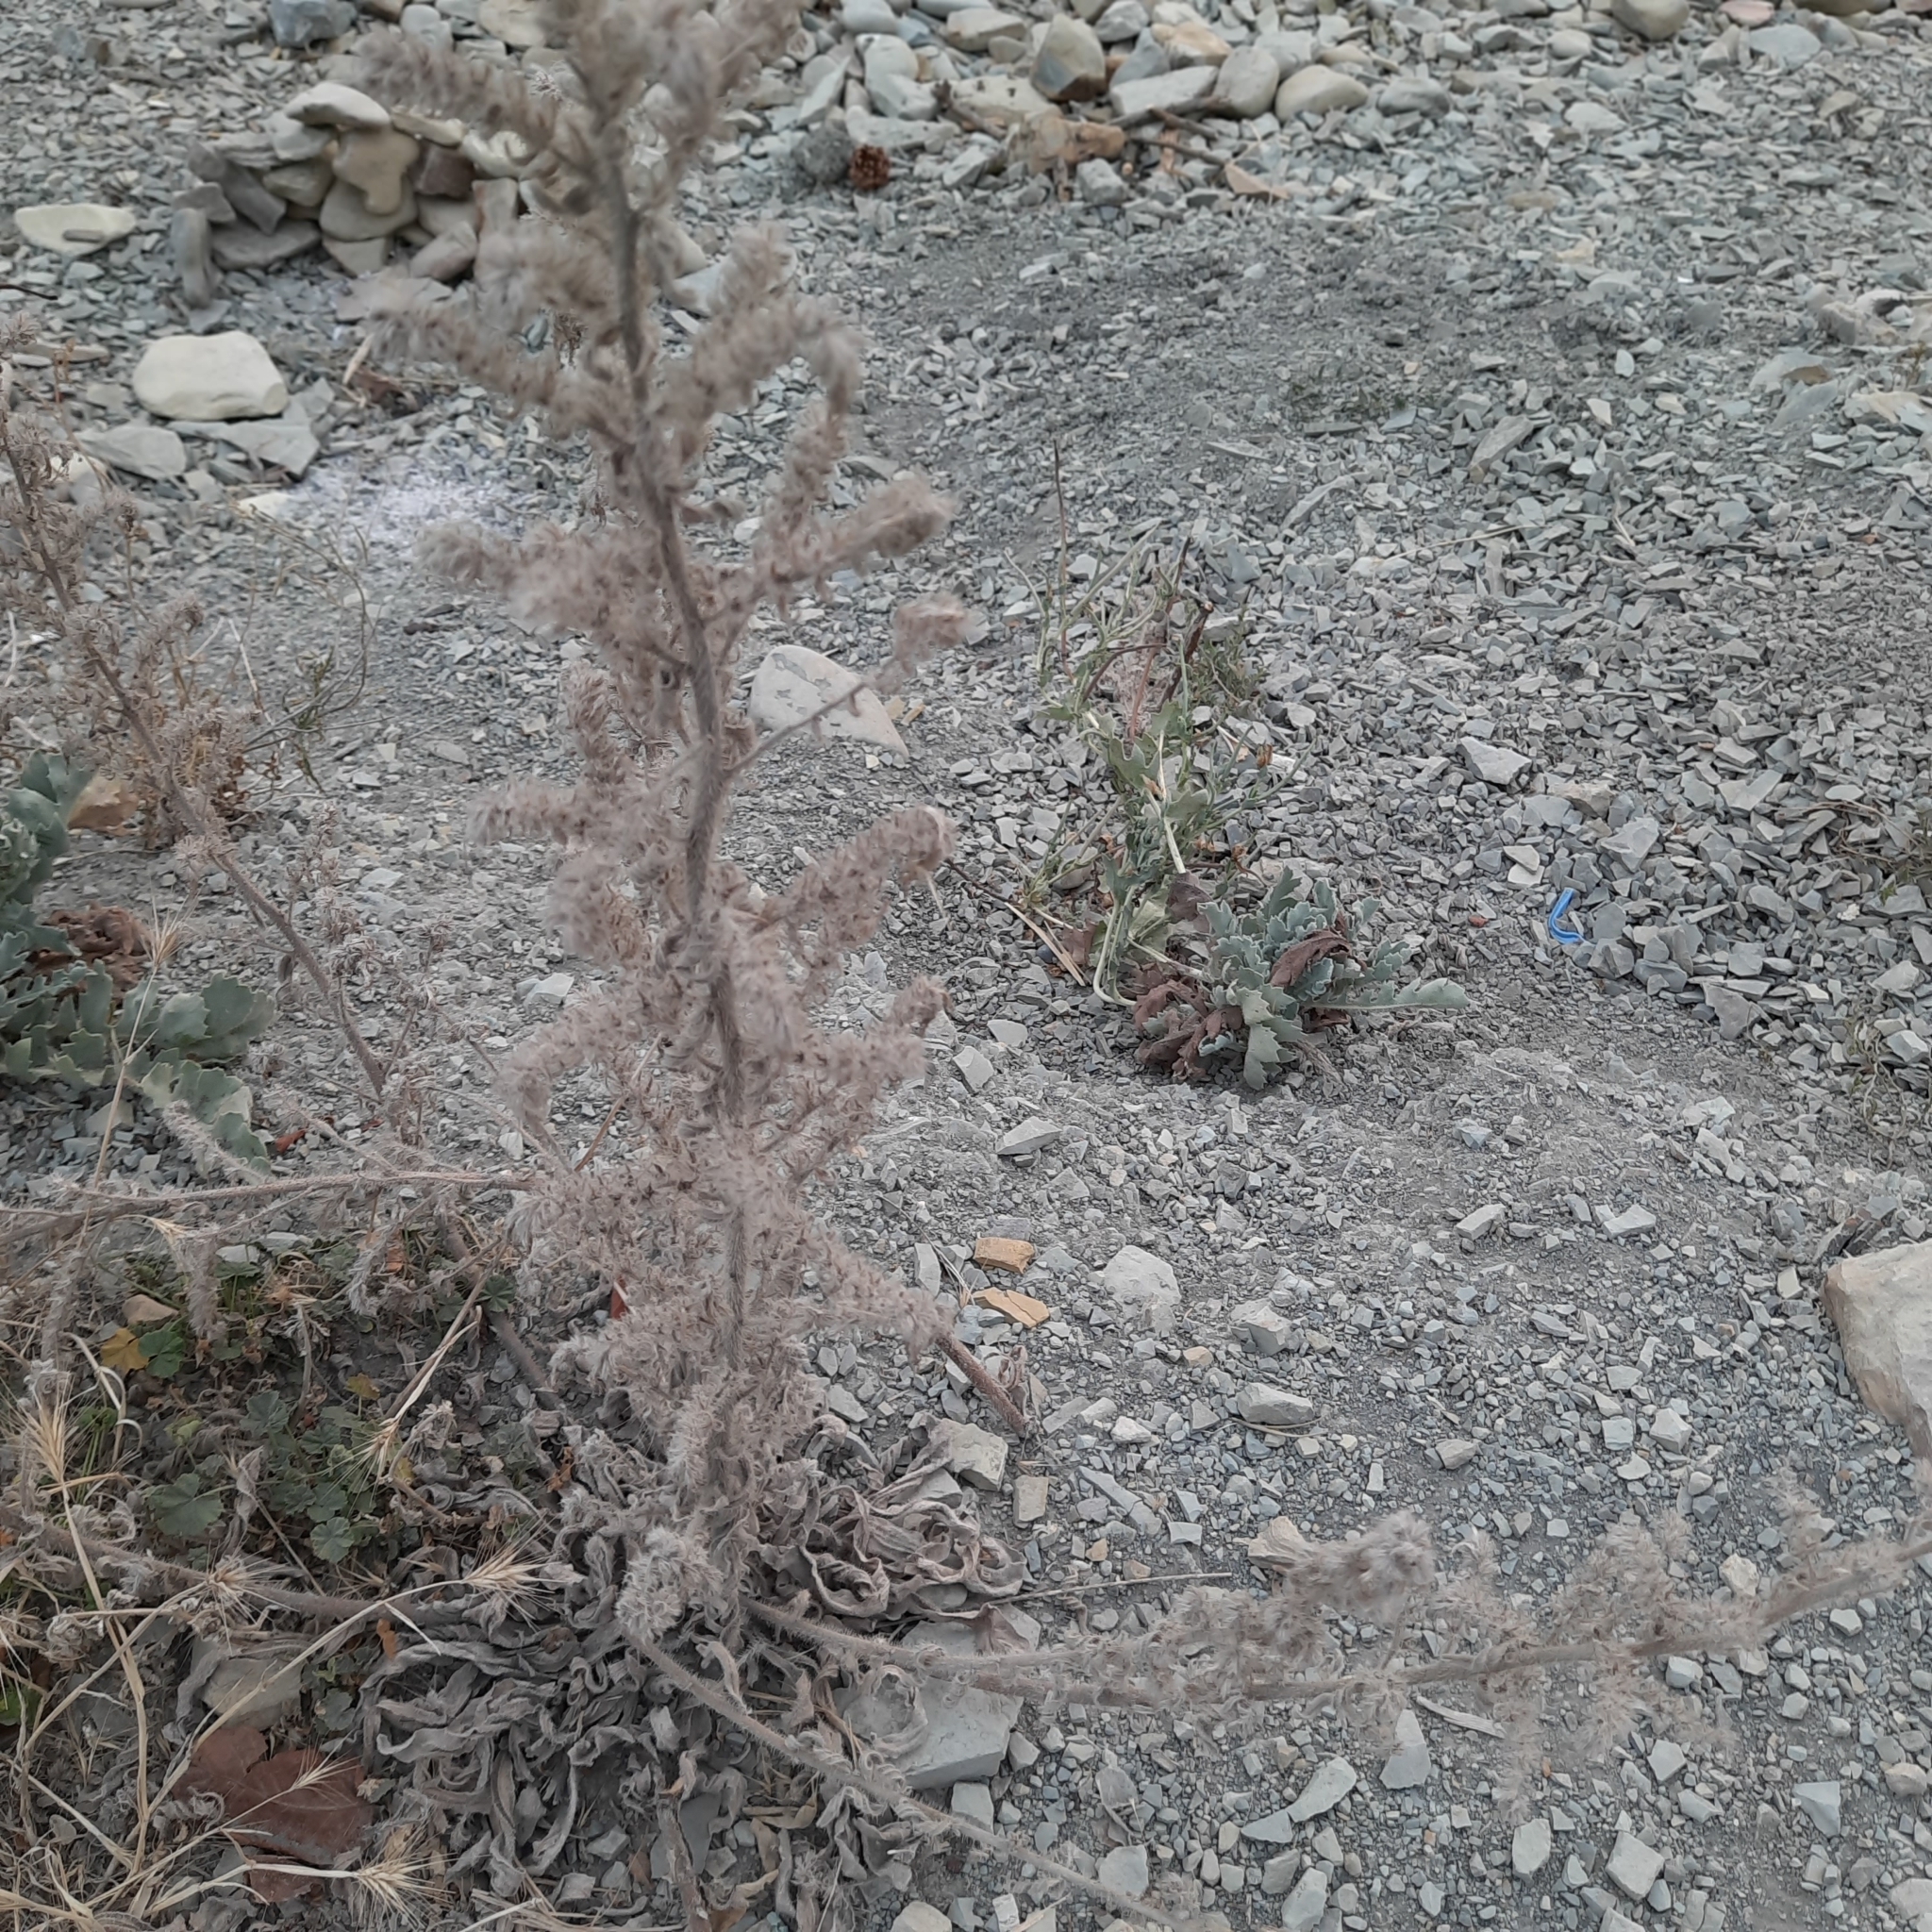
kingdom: Plantae
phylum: Tracheophyta
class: Magnoliopsida
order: Boraginales
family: Boraginaceae
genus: Echium
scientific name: Echium vulgare
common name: Common viper's bugloss
